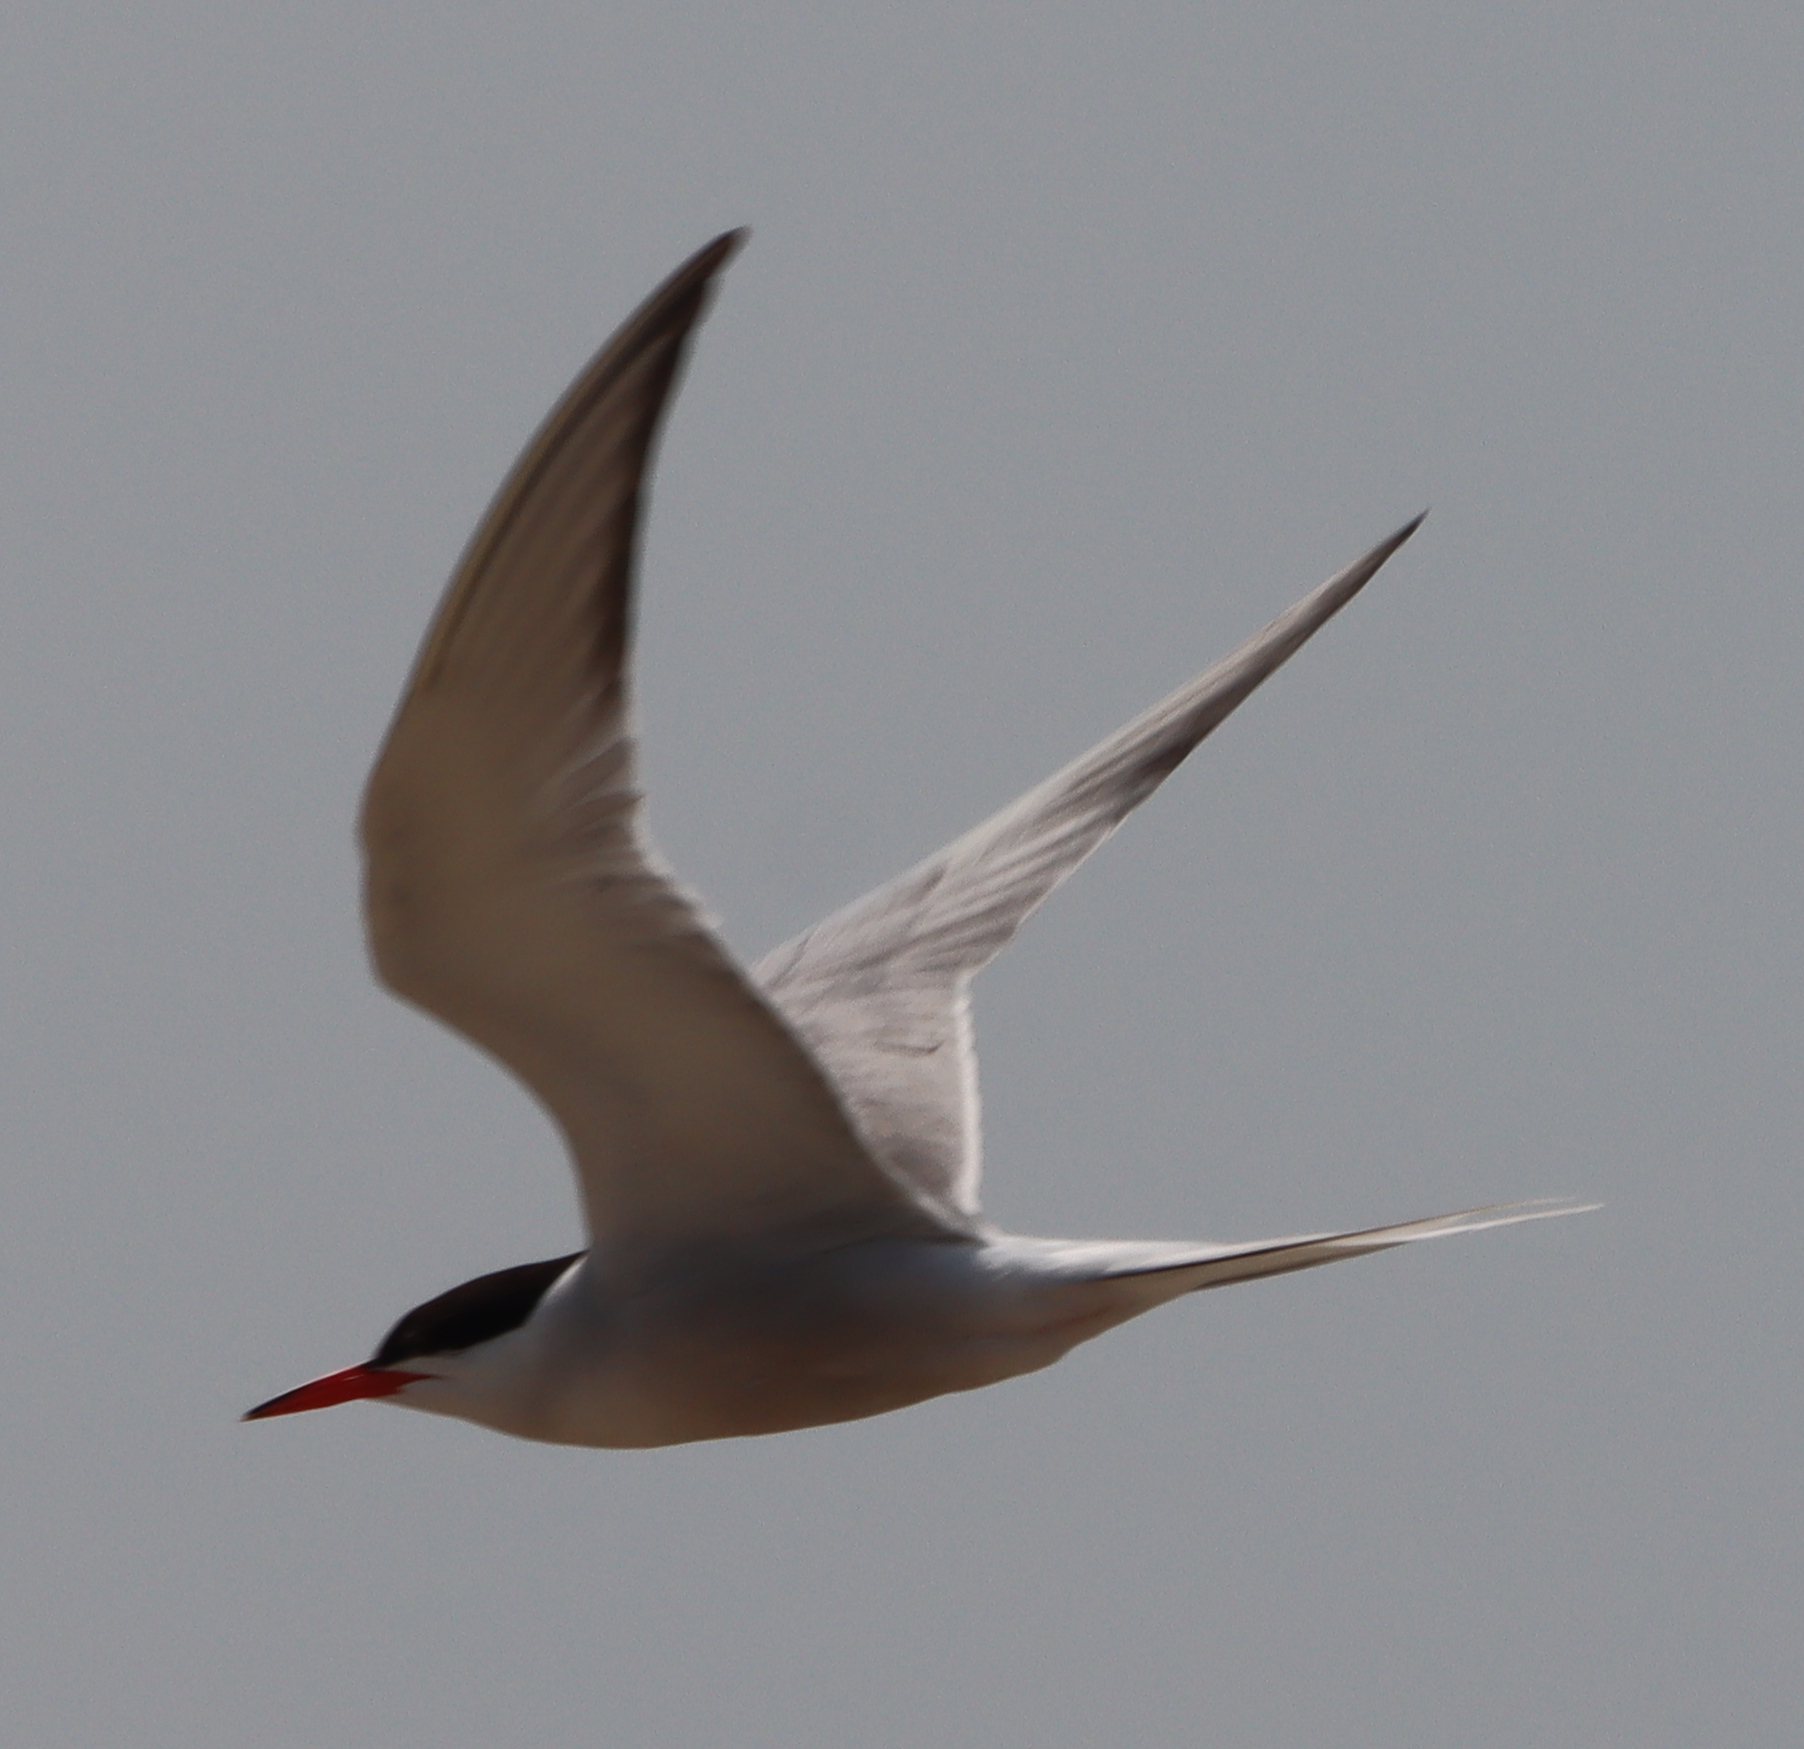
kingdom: Animalia
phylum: Chordata
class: Aves
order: Charadriiformes
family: Laridae
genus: Sterna
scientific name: Sterna hirundo
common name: Common tern
